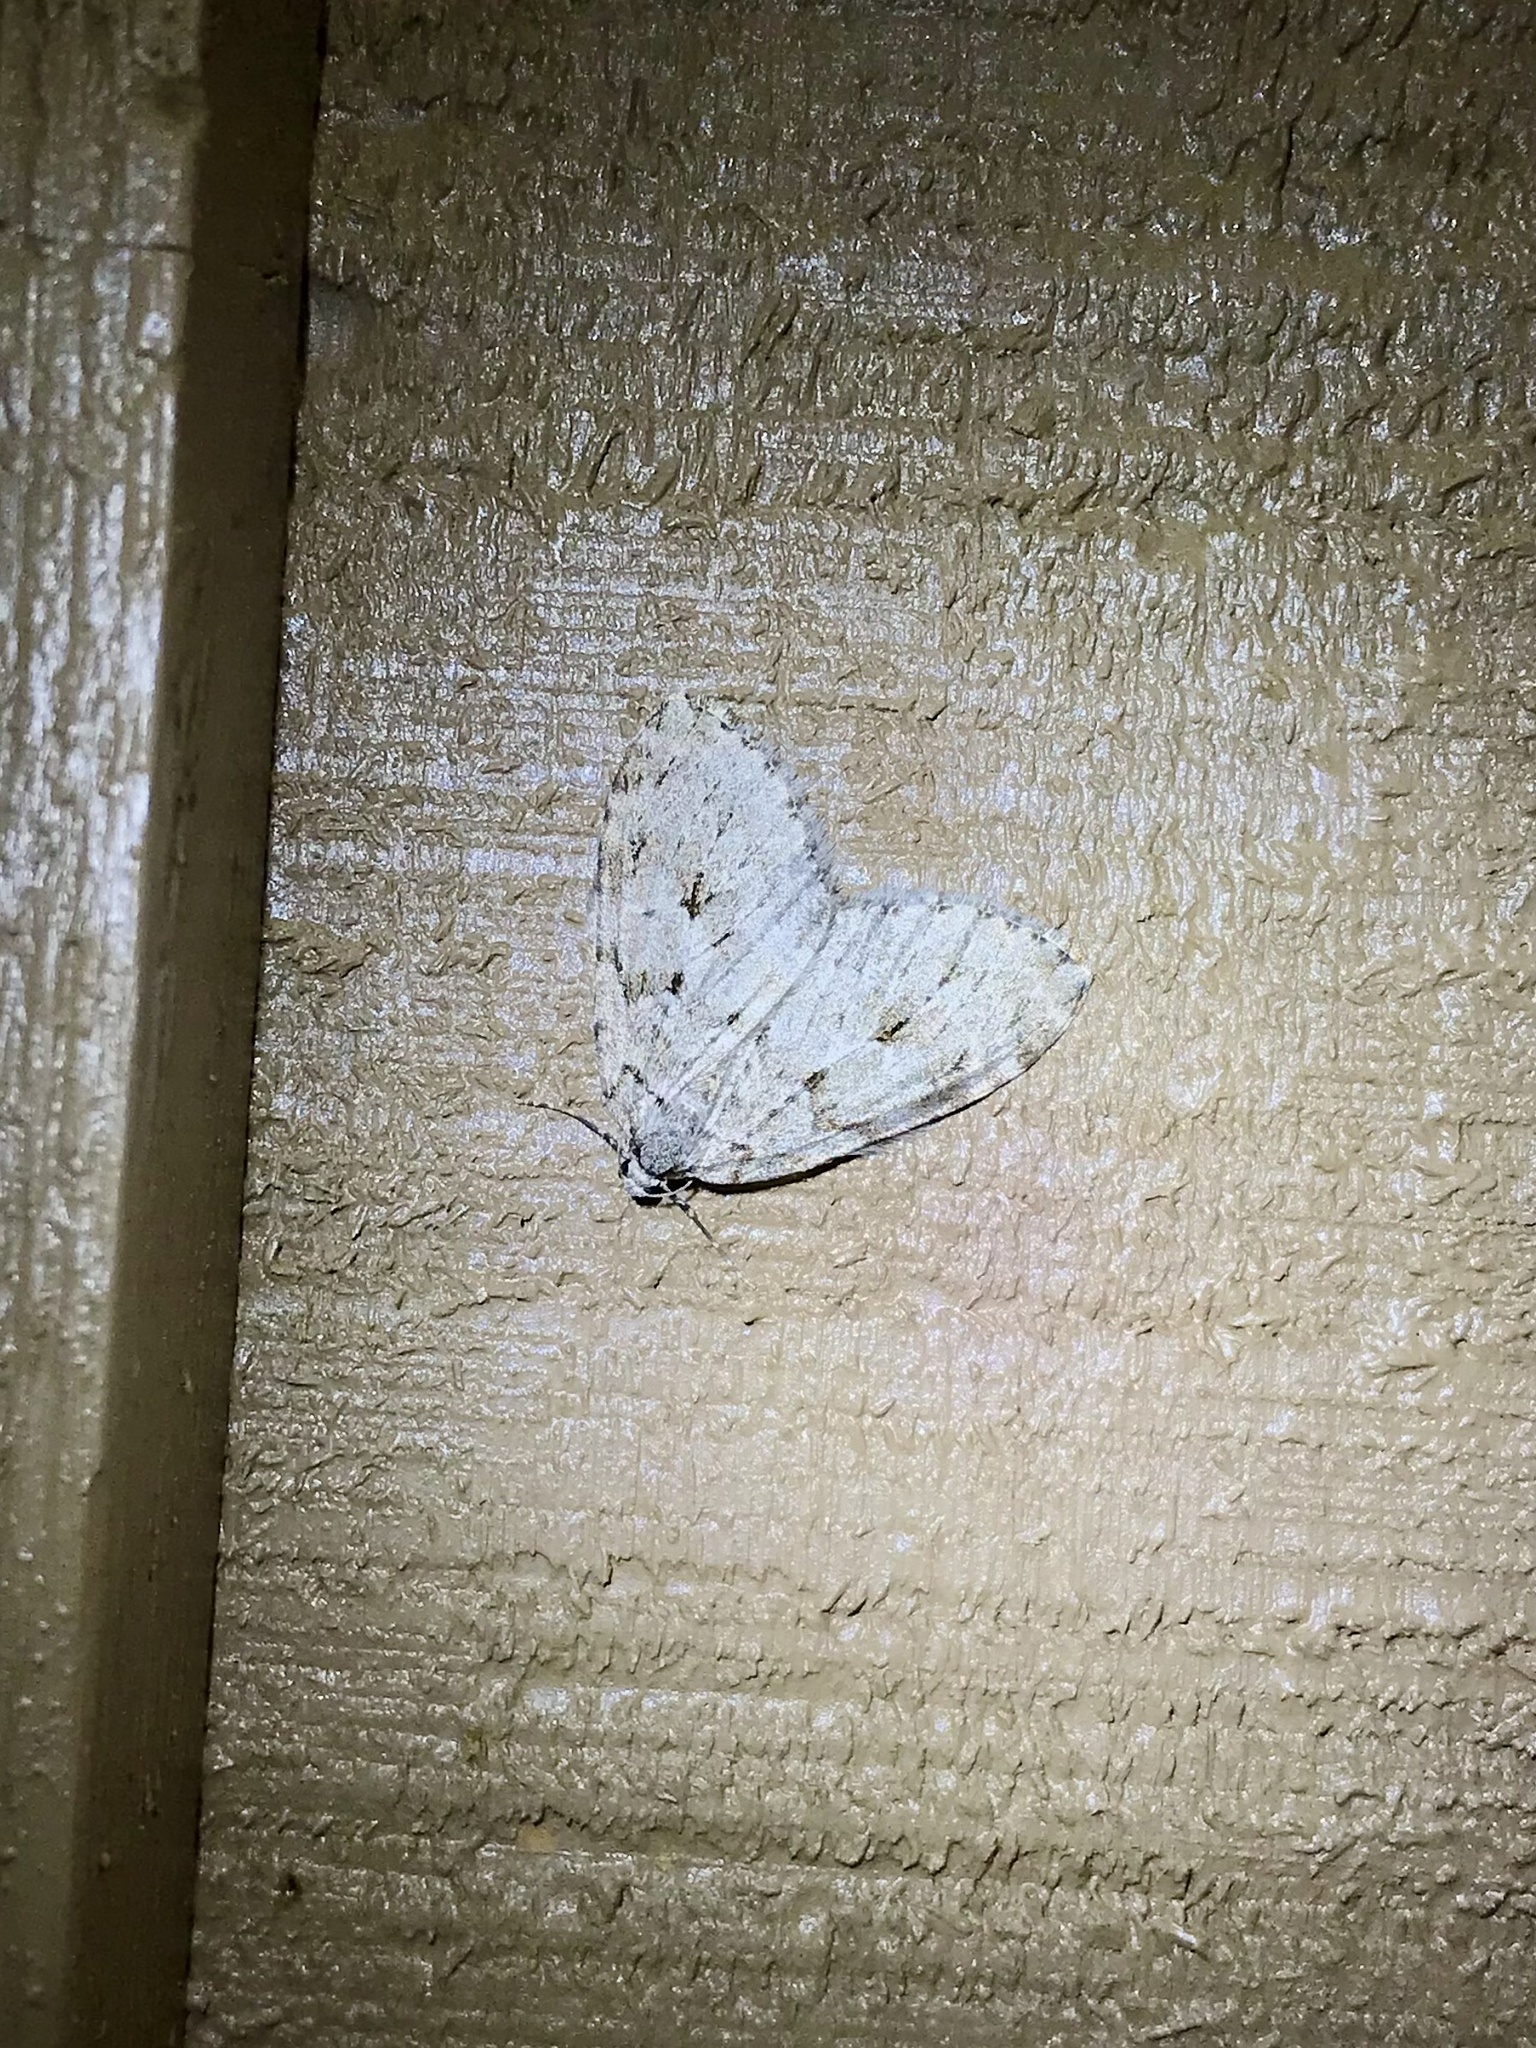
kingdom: Animalia
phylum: Arthropoda
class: Insecta
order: Lepidoptera
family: Geometridae
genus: Epirrita
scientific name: Epirrita autumnata
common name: Autumnal moth
